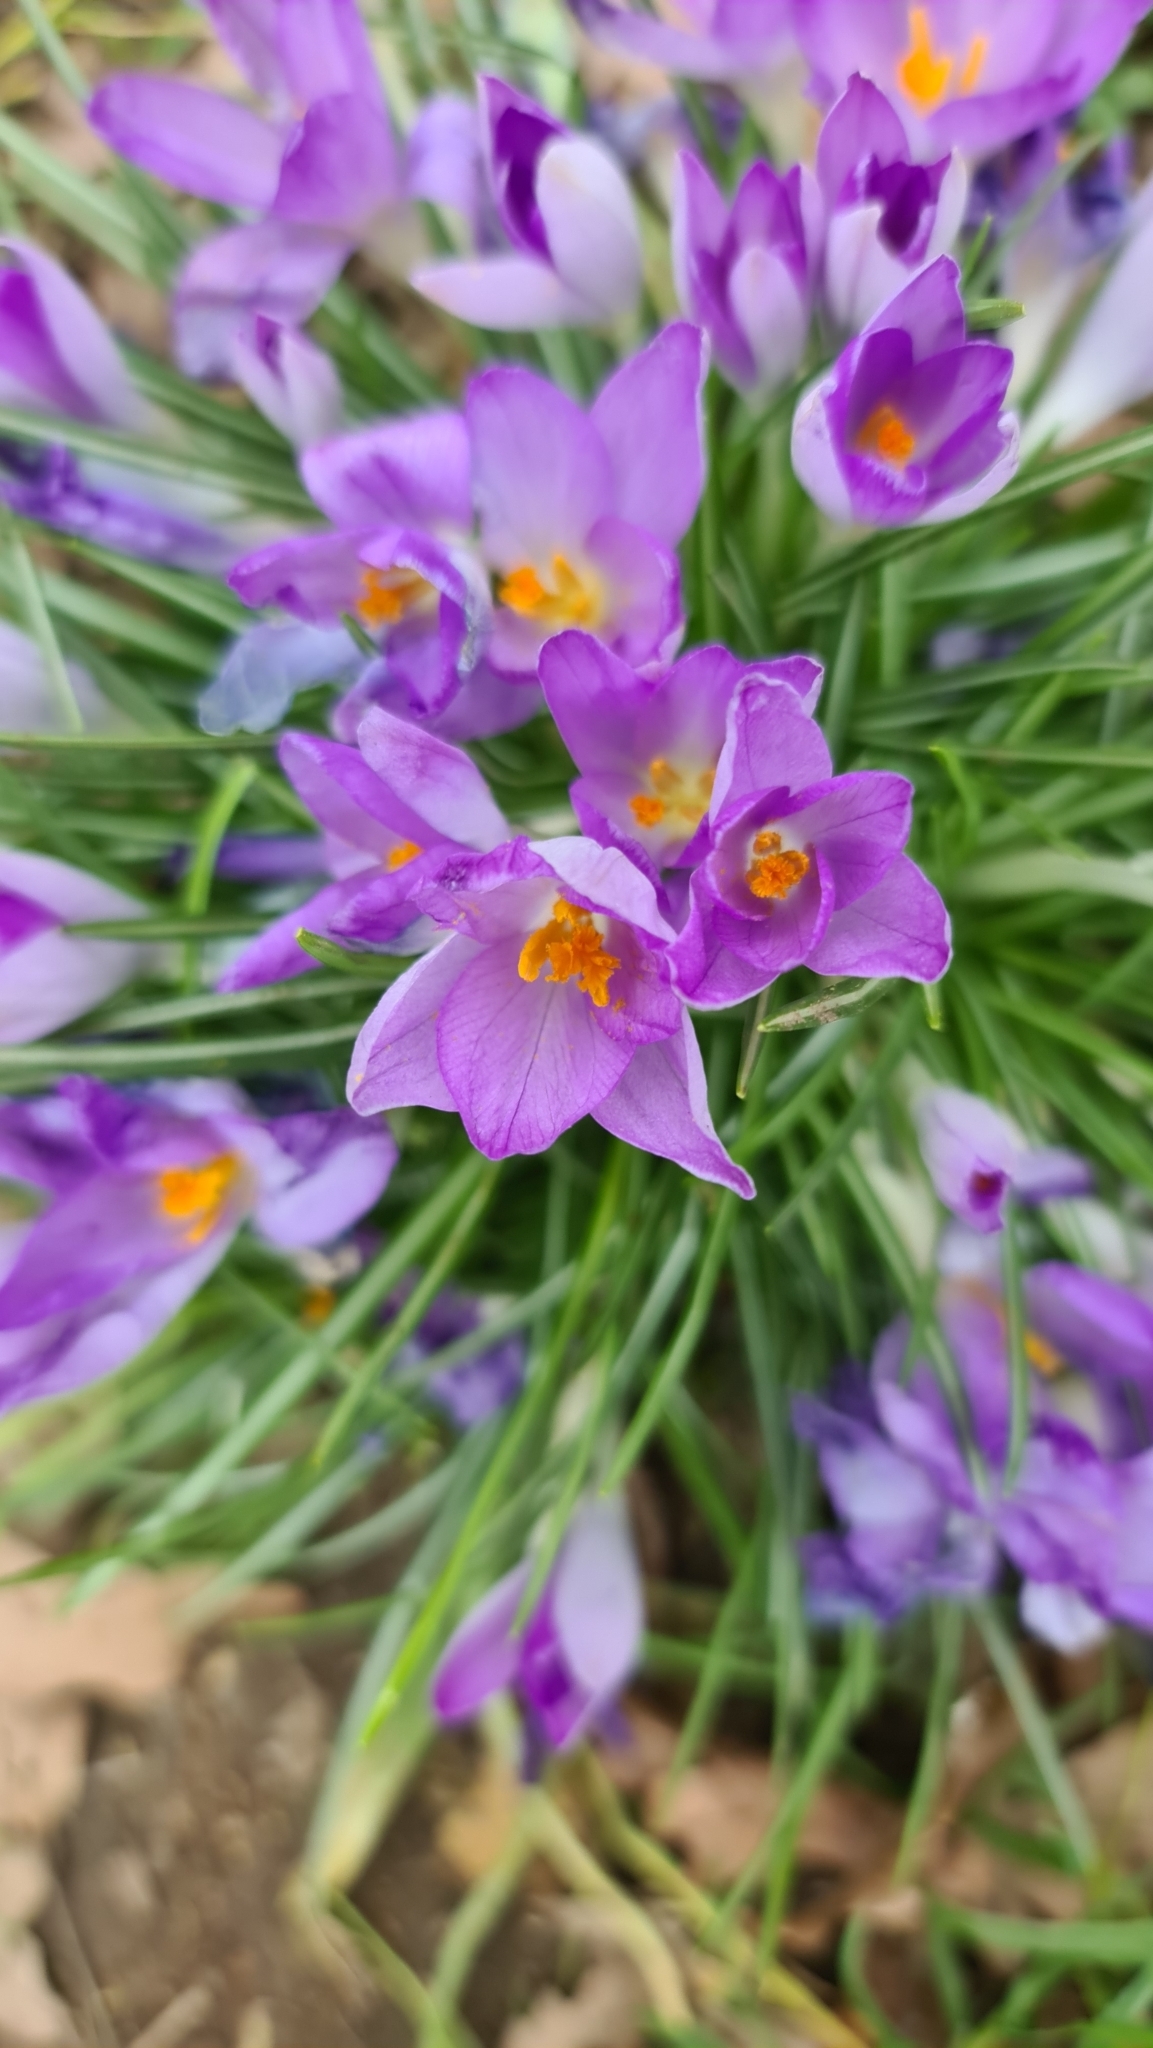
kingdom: Plantae
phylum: Tracheophyta
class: Liliopsida
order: Asparagales
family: Iridaceae
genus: Crocus
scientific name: Crocus tommasinianus
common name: Early crocus
